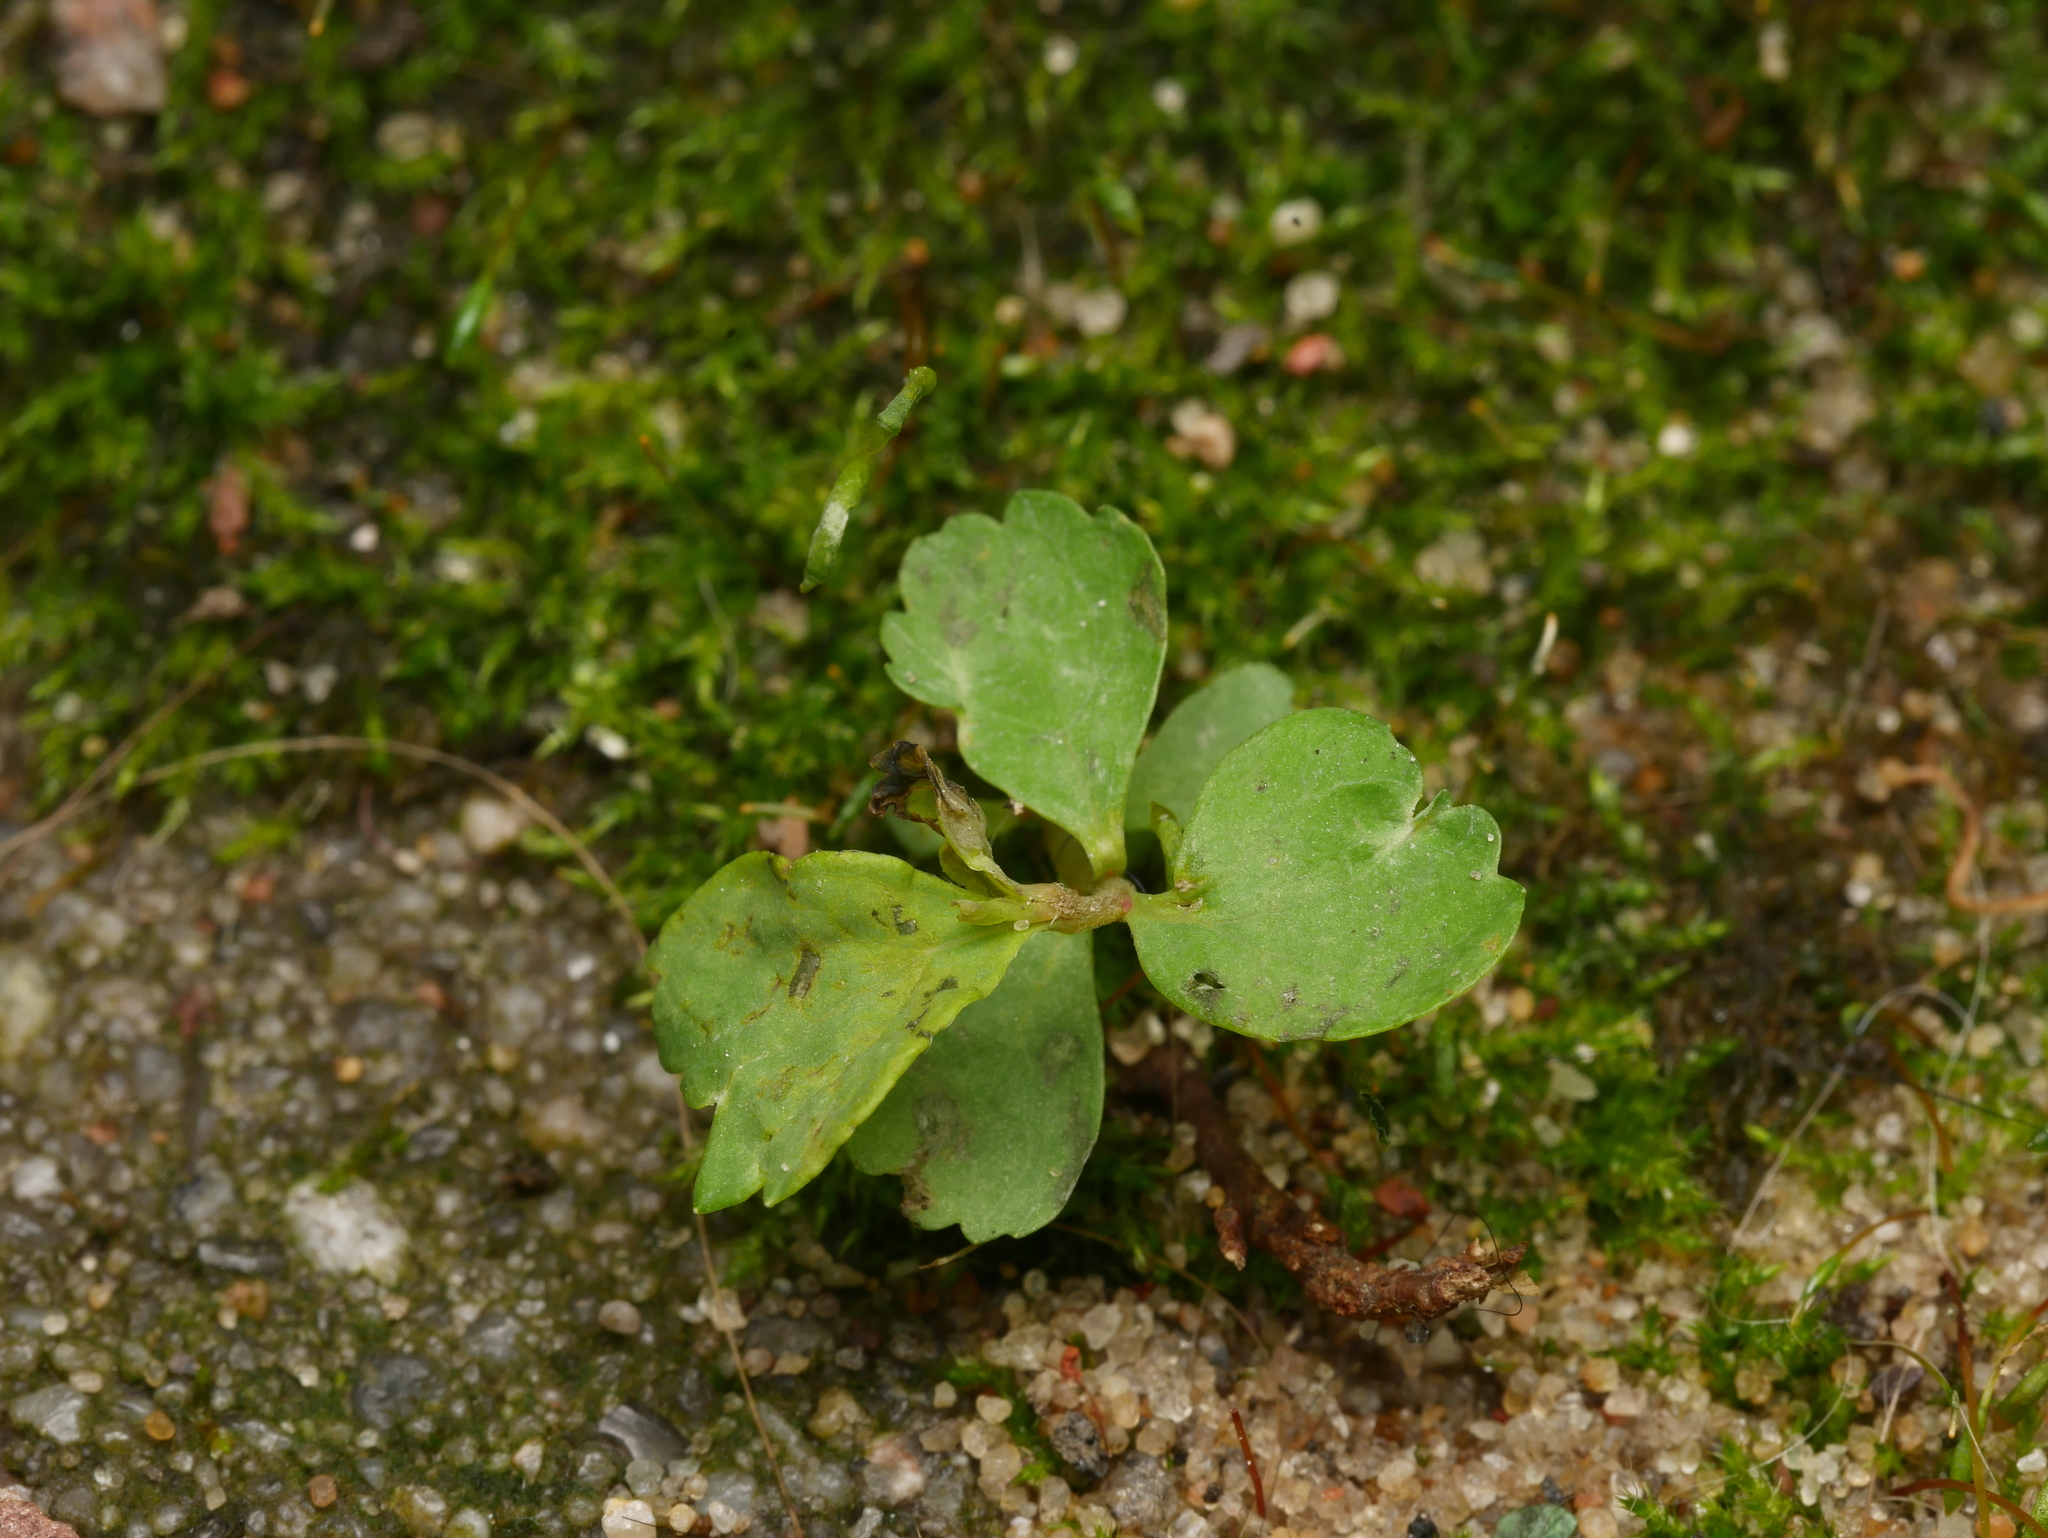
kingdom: Plantae
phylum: Tracheophyta
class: Magnoliopsida
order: Buxales
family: Buxaceae
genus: Pachysandra
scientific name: Pachysandra terminalis
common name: Japanese pachysandra
